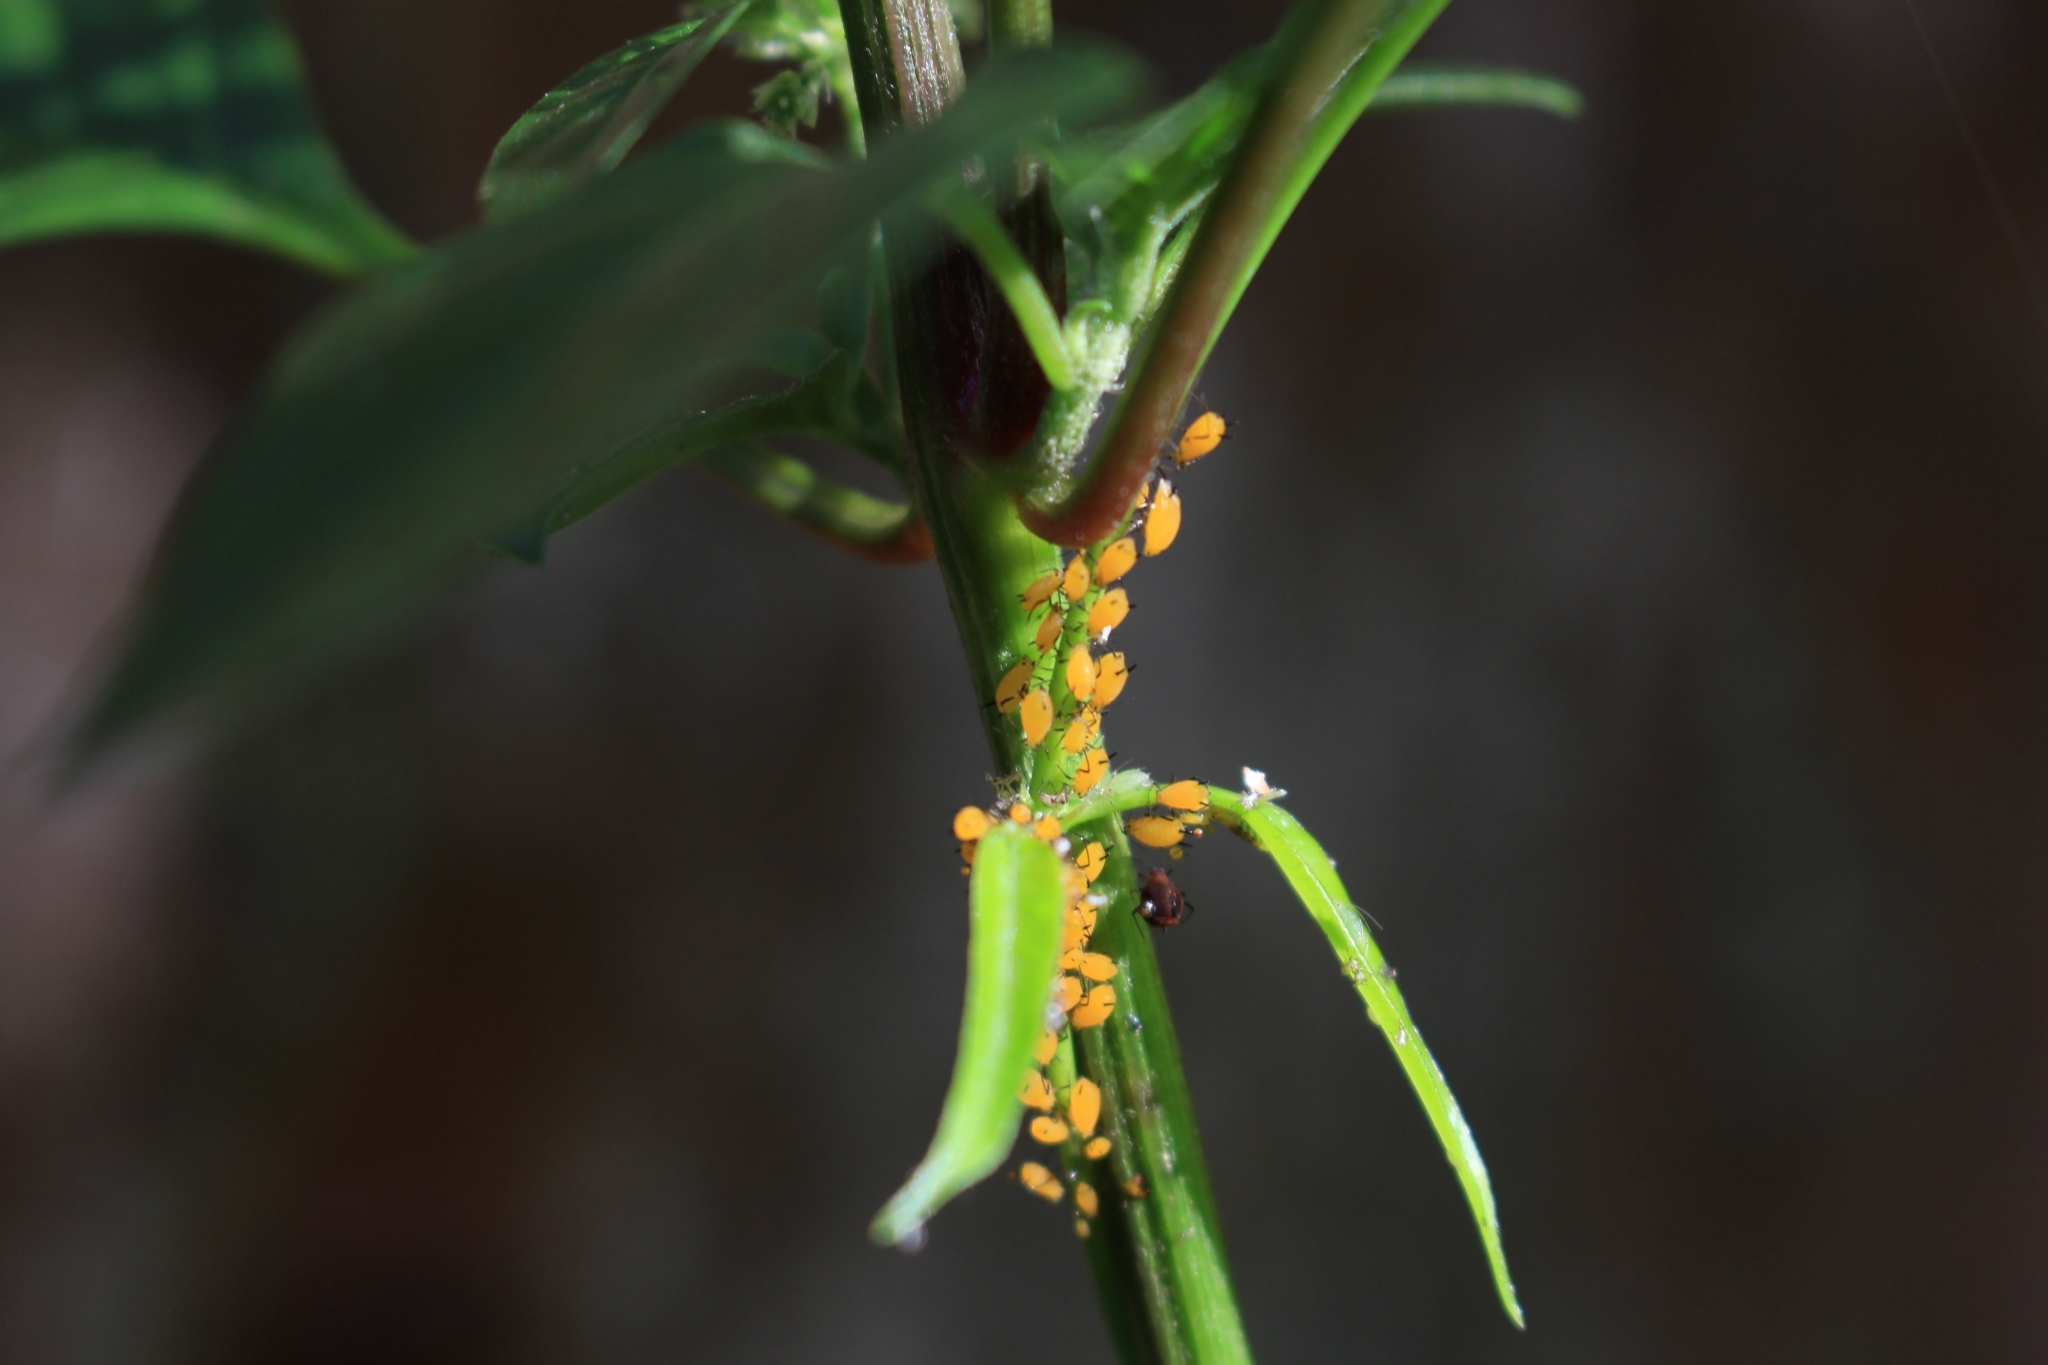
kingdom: Animalia
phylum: Arthropoda
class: Insecta
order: Hemiptera
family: Aphididae
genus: Aphis
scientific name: Aphis nerii
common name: Oleander aphid
